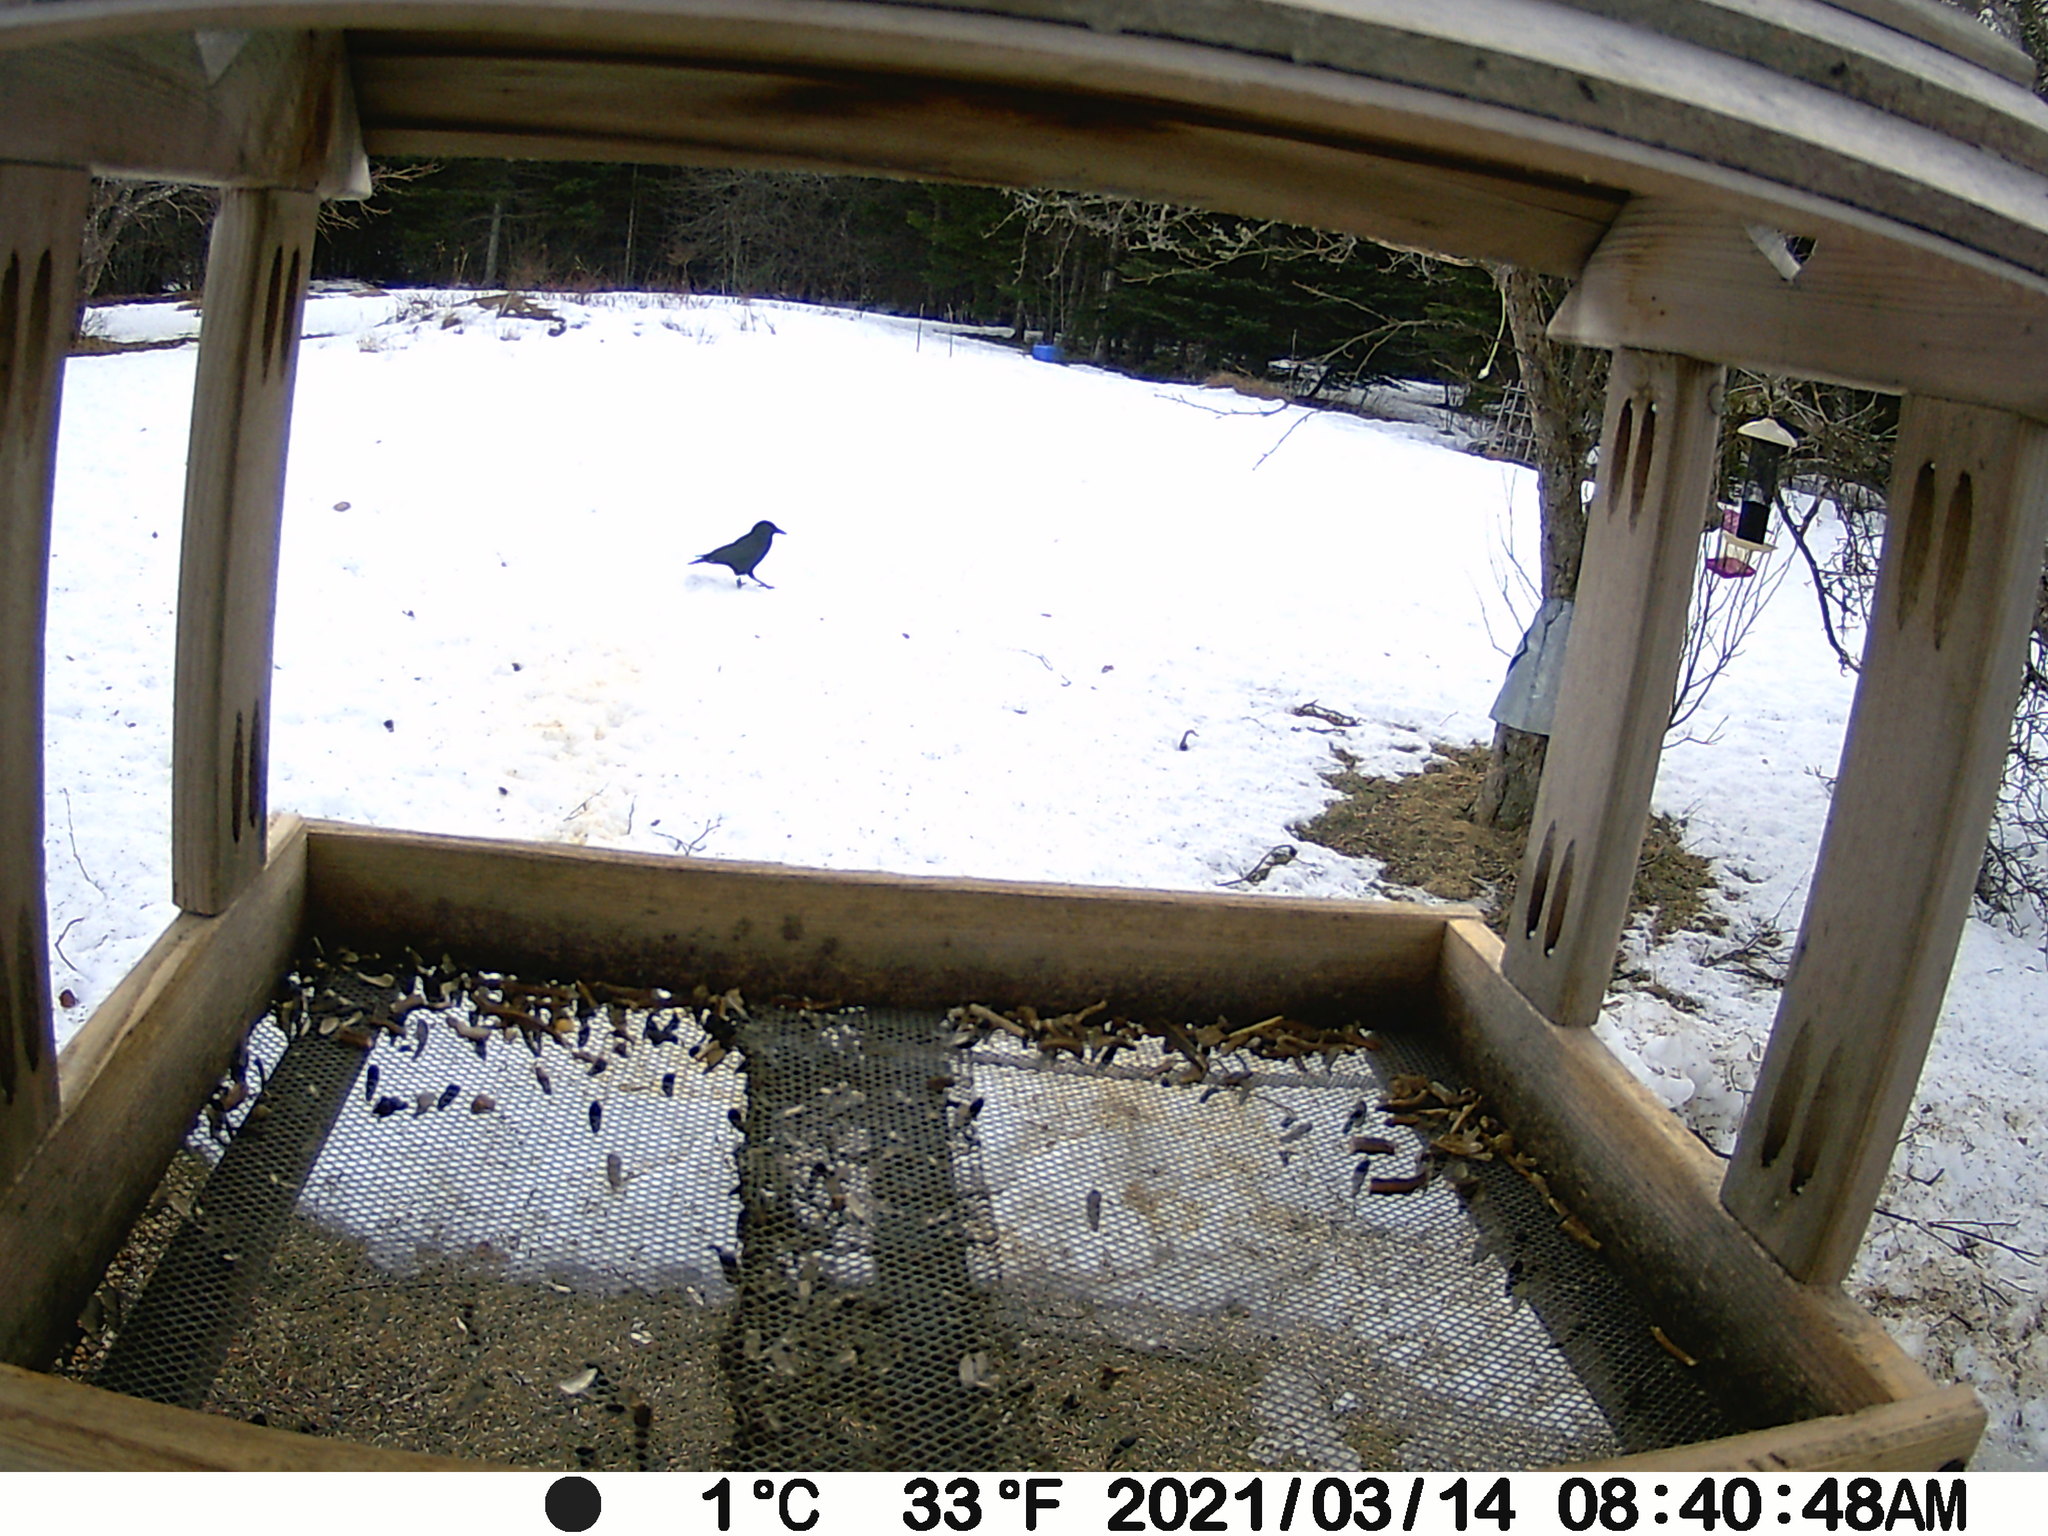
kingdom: Animalia
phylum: Chordata
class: Aves
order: Passeriformes
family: Corvidae
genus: Corvus
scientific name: Corvus brachyrhynchos
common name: American crow
